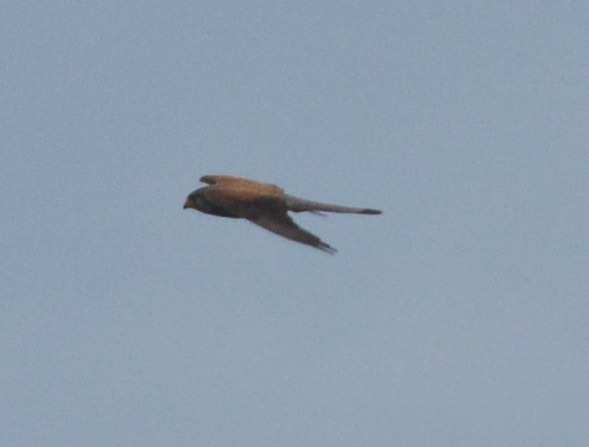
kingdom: Animalia
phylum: Chordata
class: Aves
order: Falconiformes
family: Falconidae
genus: Falco
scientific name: Falco tinnunculus
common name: Common kestrel
